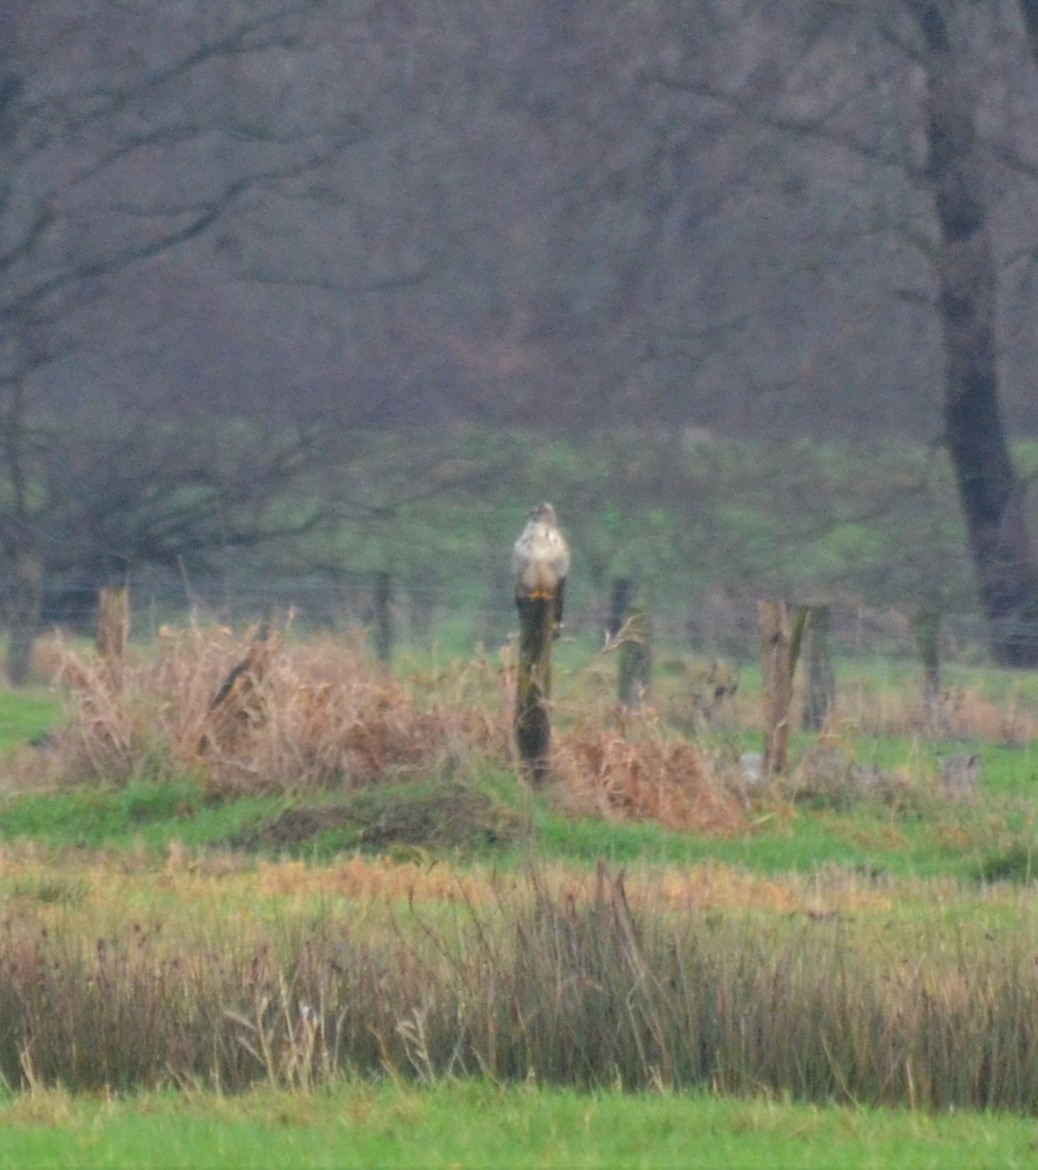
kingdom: Animalia
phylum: Chordata
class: Aves
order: Accipitriformes
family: Accipitridae
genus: Buteo
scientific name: Buteo buteo
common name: Common buzzard
